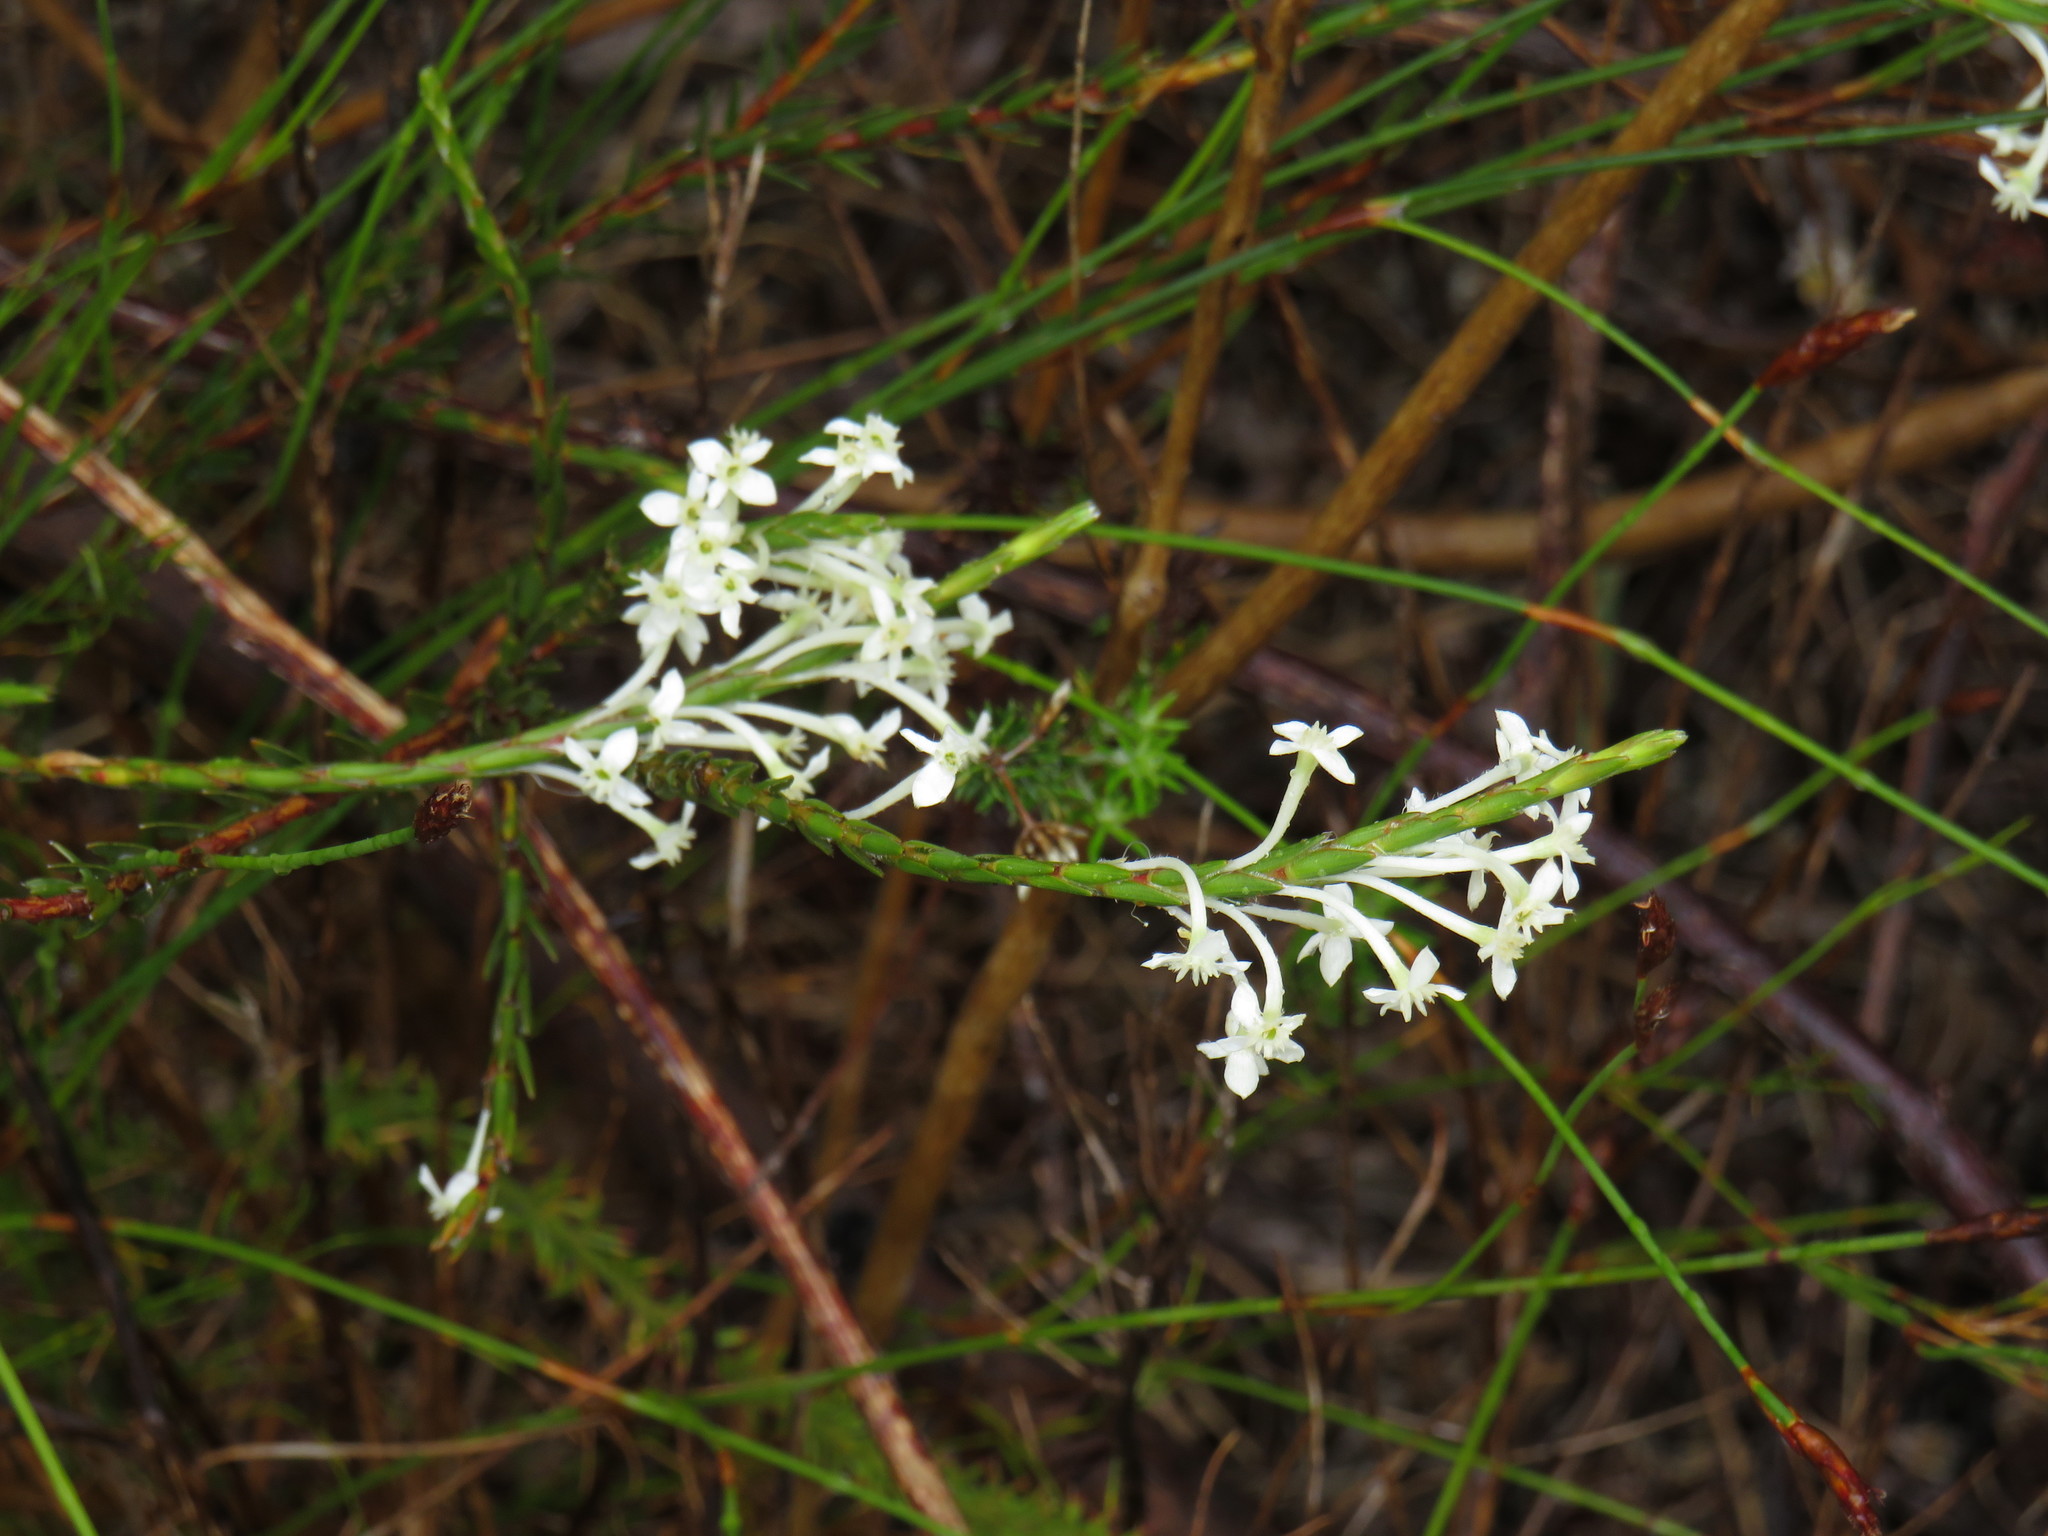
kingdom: Plantae
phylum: Tracheophyta
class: Magnoliopsida
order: Malvales
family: Thymelaeaceae
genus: Struthiola
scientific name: Struthiola ciliata
